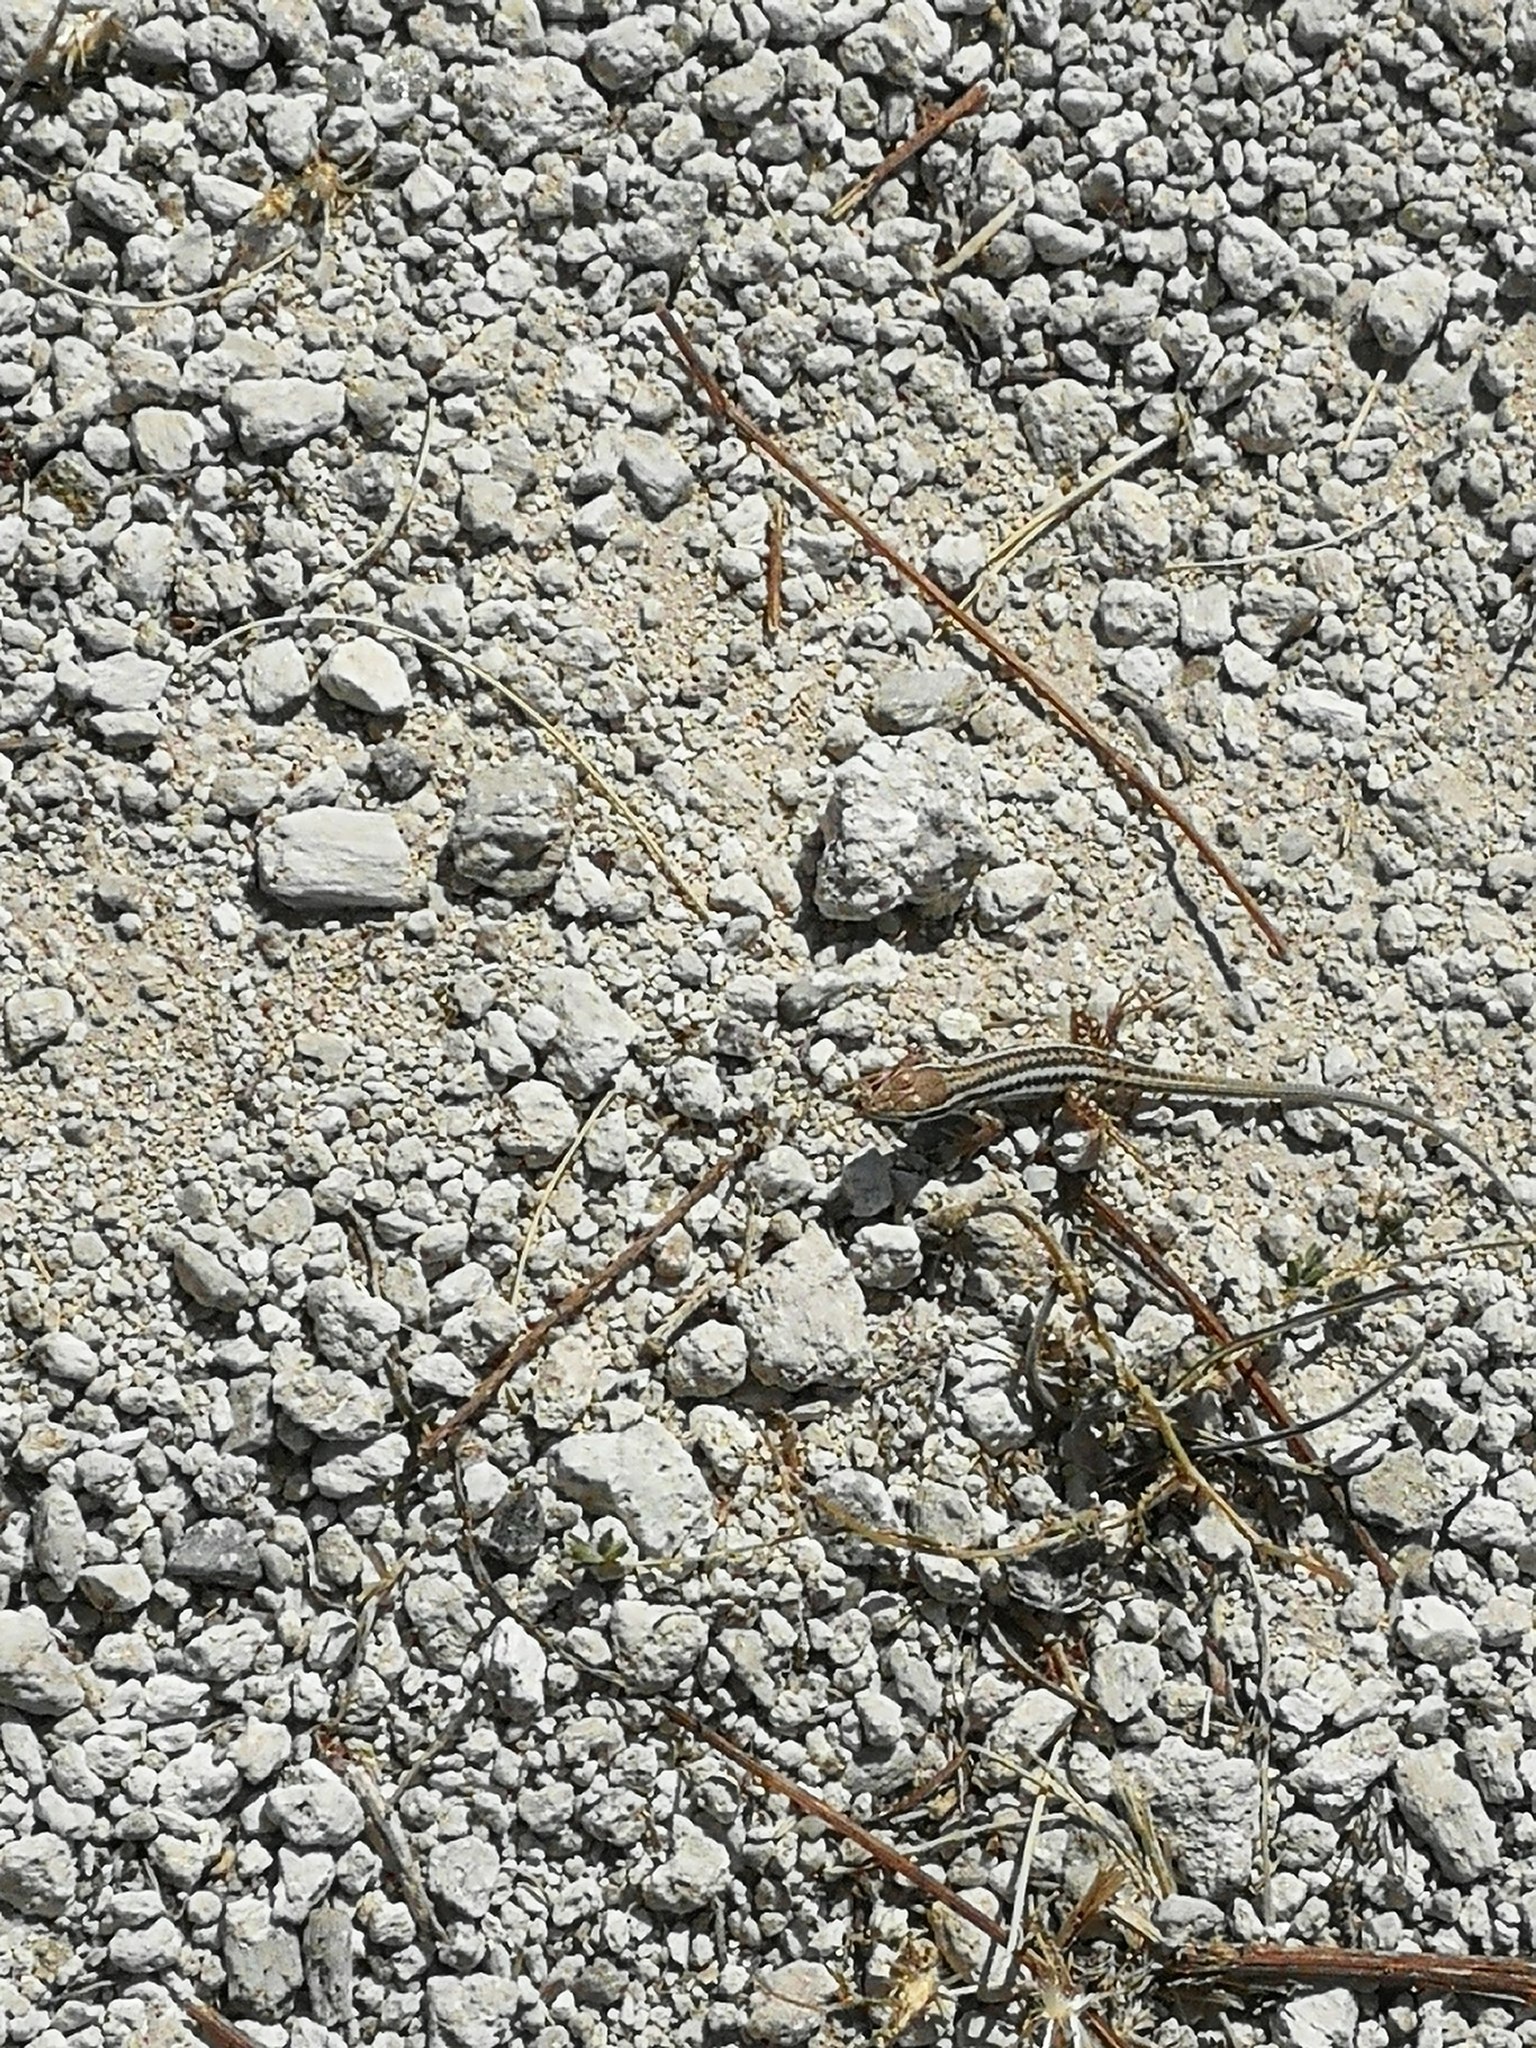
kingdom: Animalia
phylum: Chordata
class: Squamata
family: Lacertidae
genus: Ophisops
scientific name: Ophisops elegans
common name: Snake-eyed lizard
